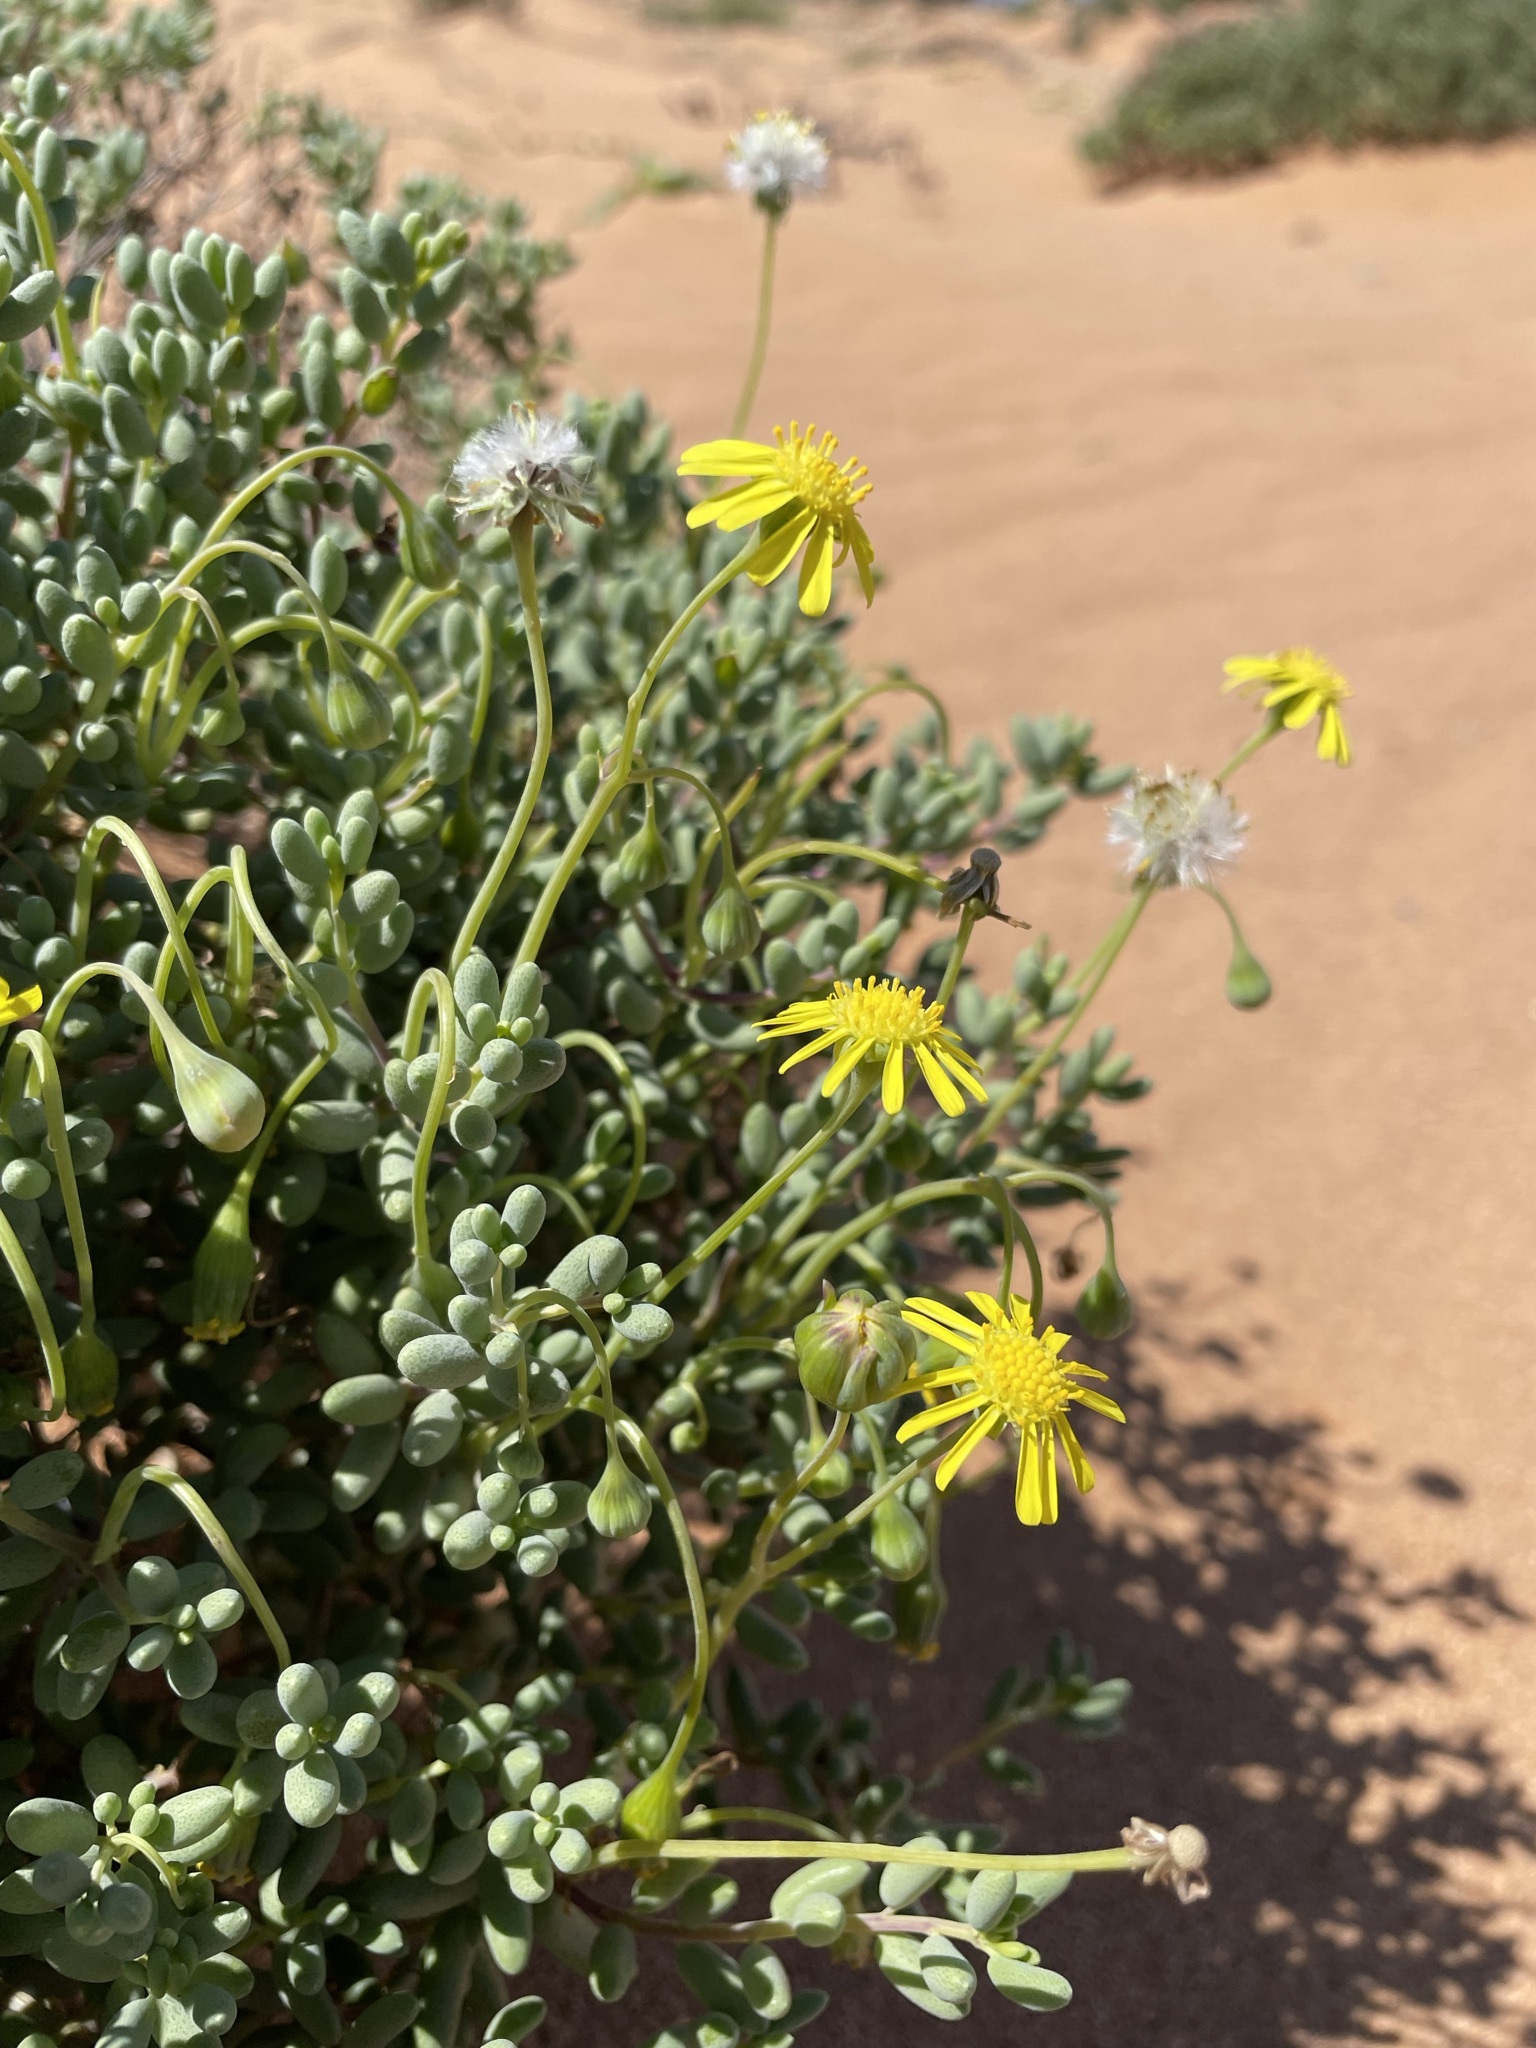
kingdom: Plantae
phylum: Tracheophyta
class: Magnoliopsida
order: Asterales
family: Asteraceae
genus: Crassothonna
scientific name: Crassothonna sedifolia
